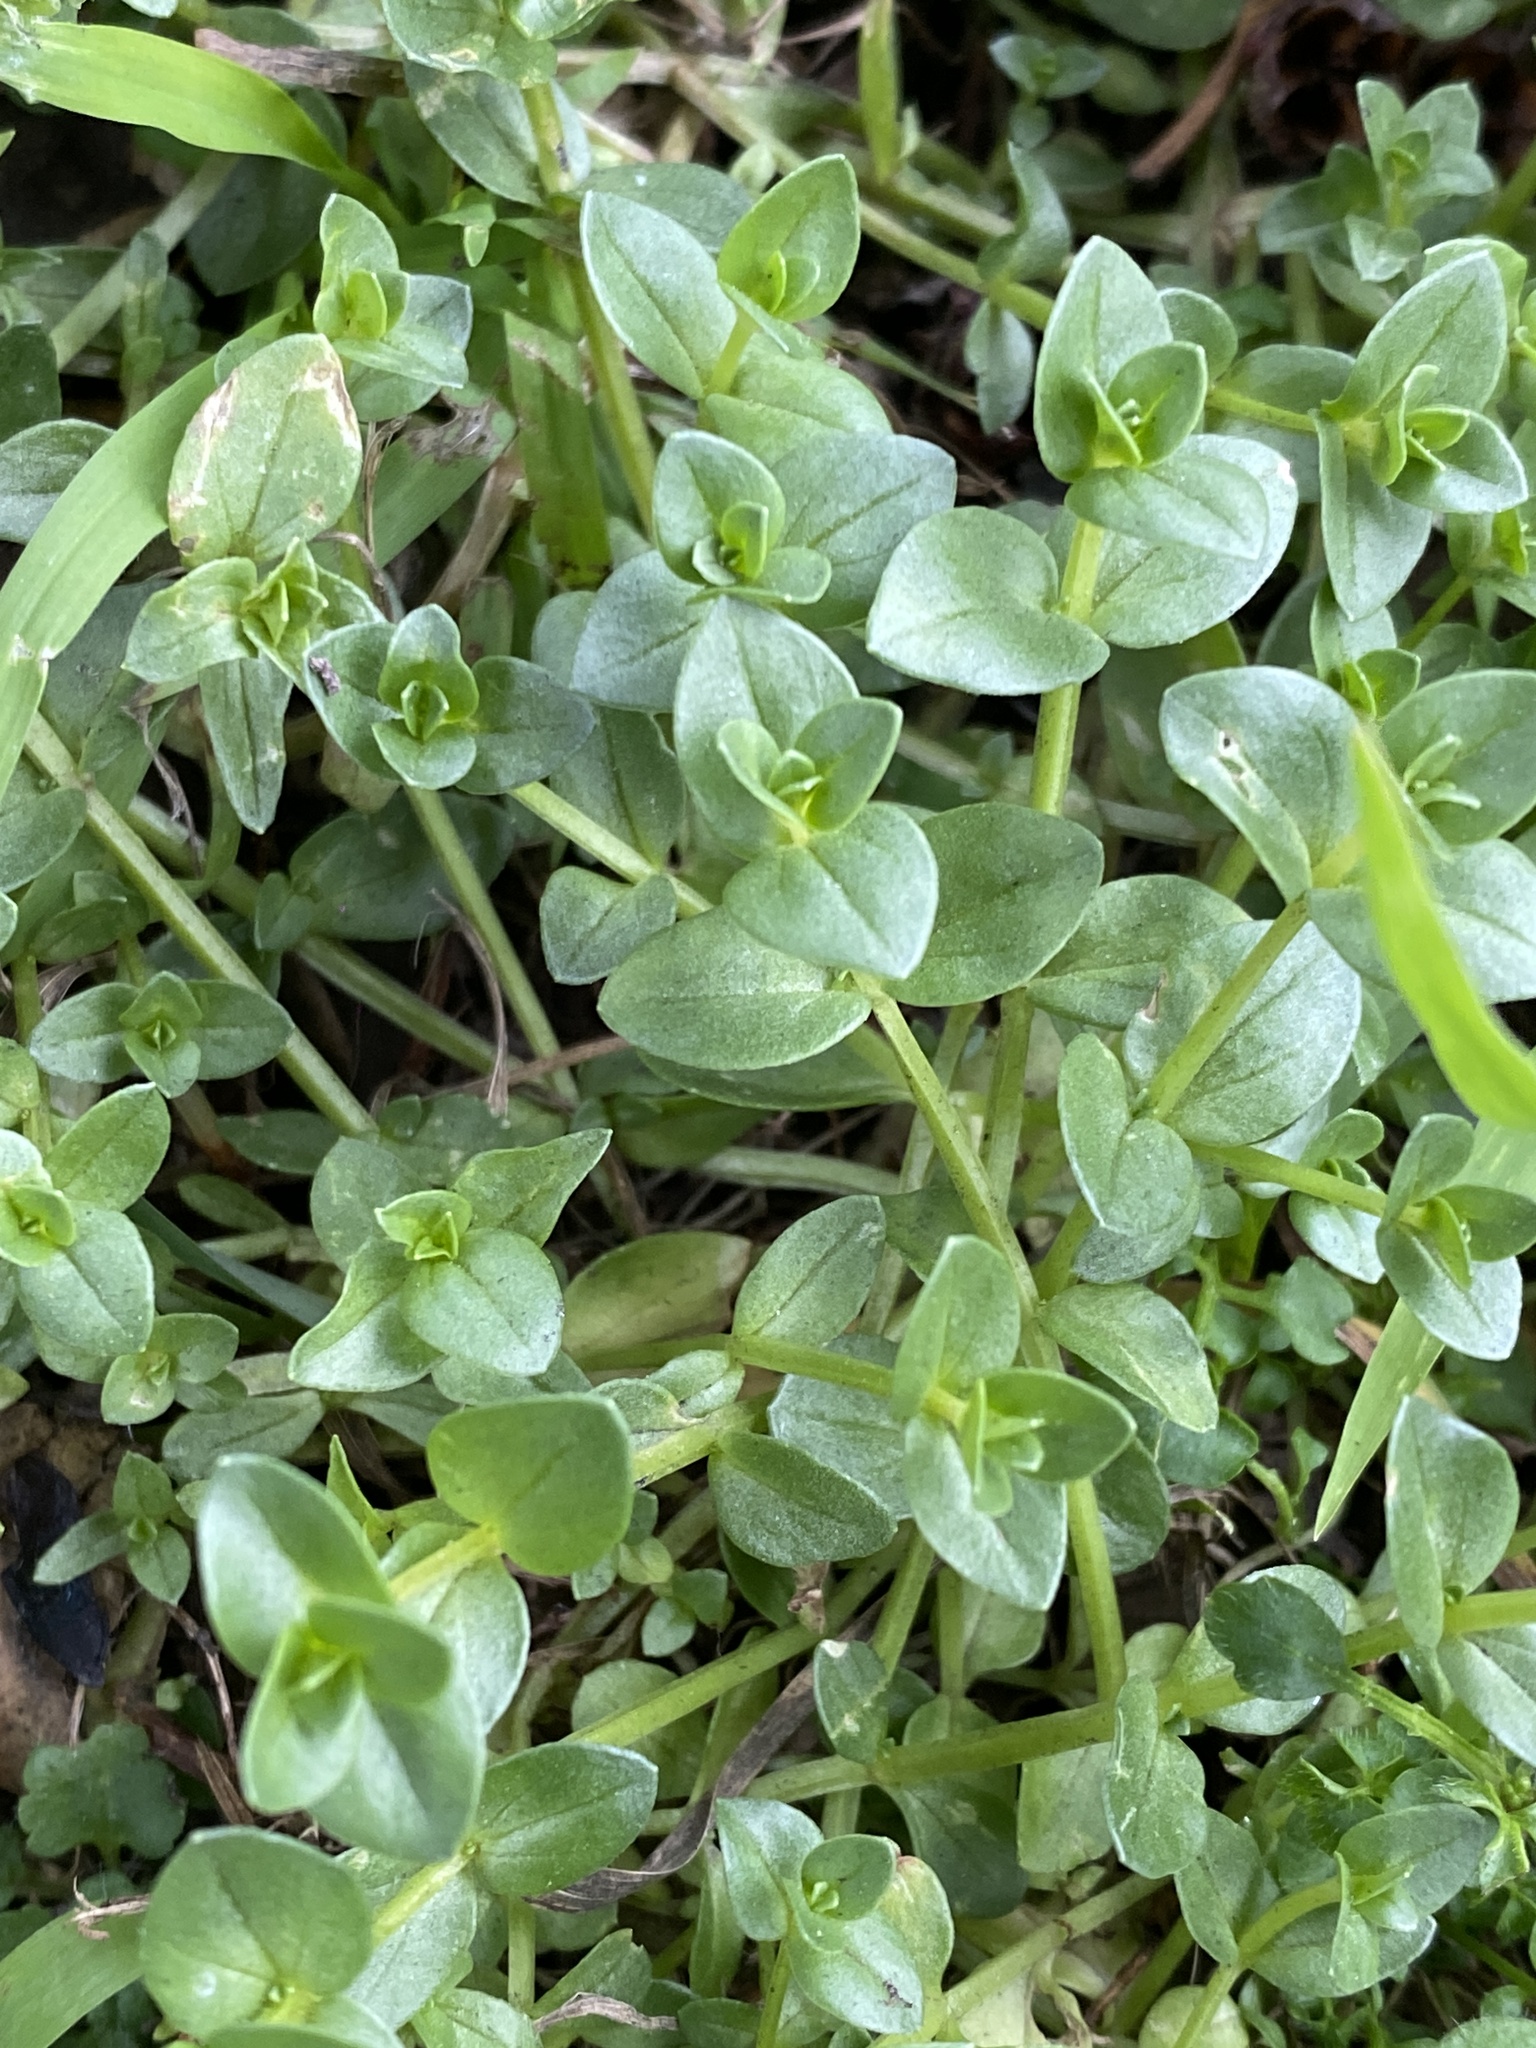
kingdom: Plantae
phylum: Tracheophyta
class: Magnoliopsida
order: Ericales
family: Primulaceae
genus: Lysimachia
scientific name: Lysimachia arvensis
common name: Scarlet pimpernel
